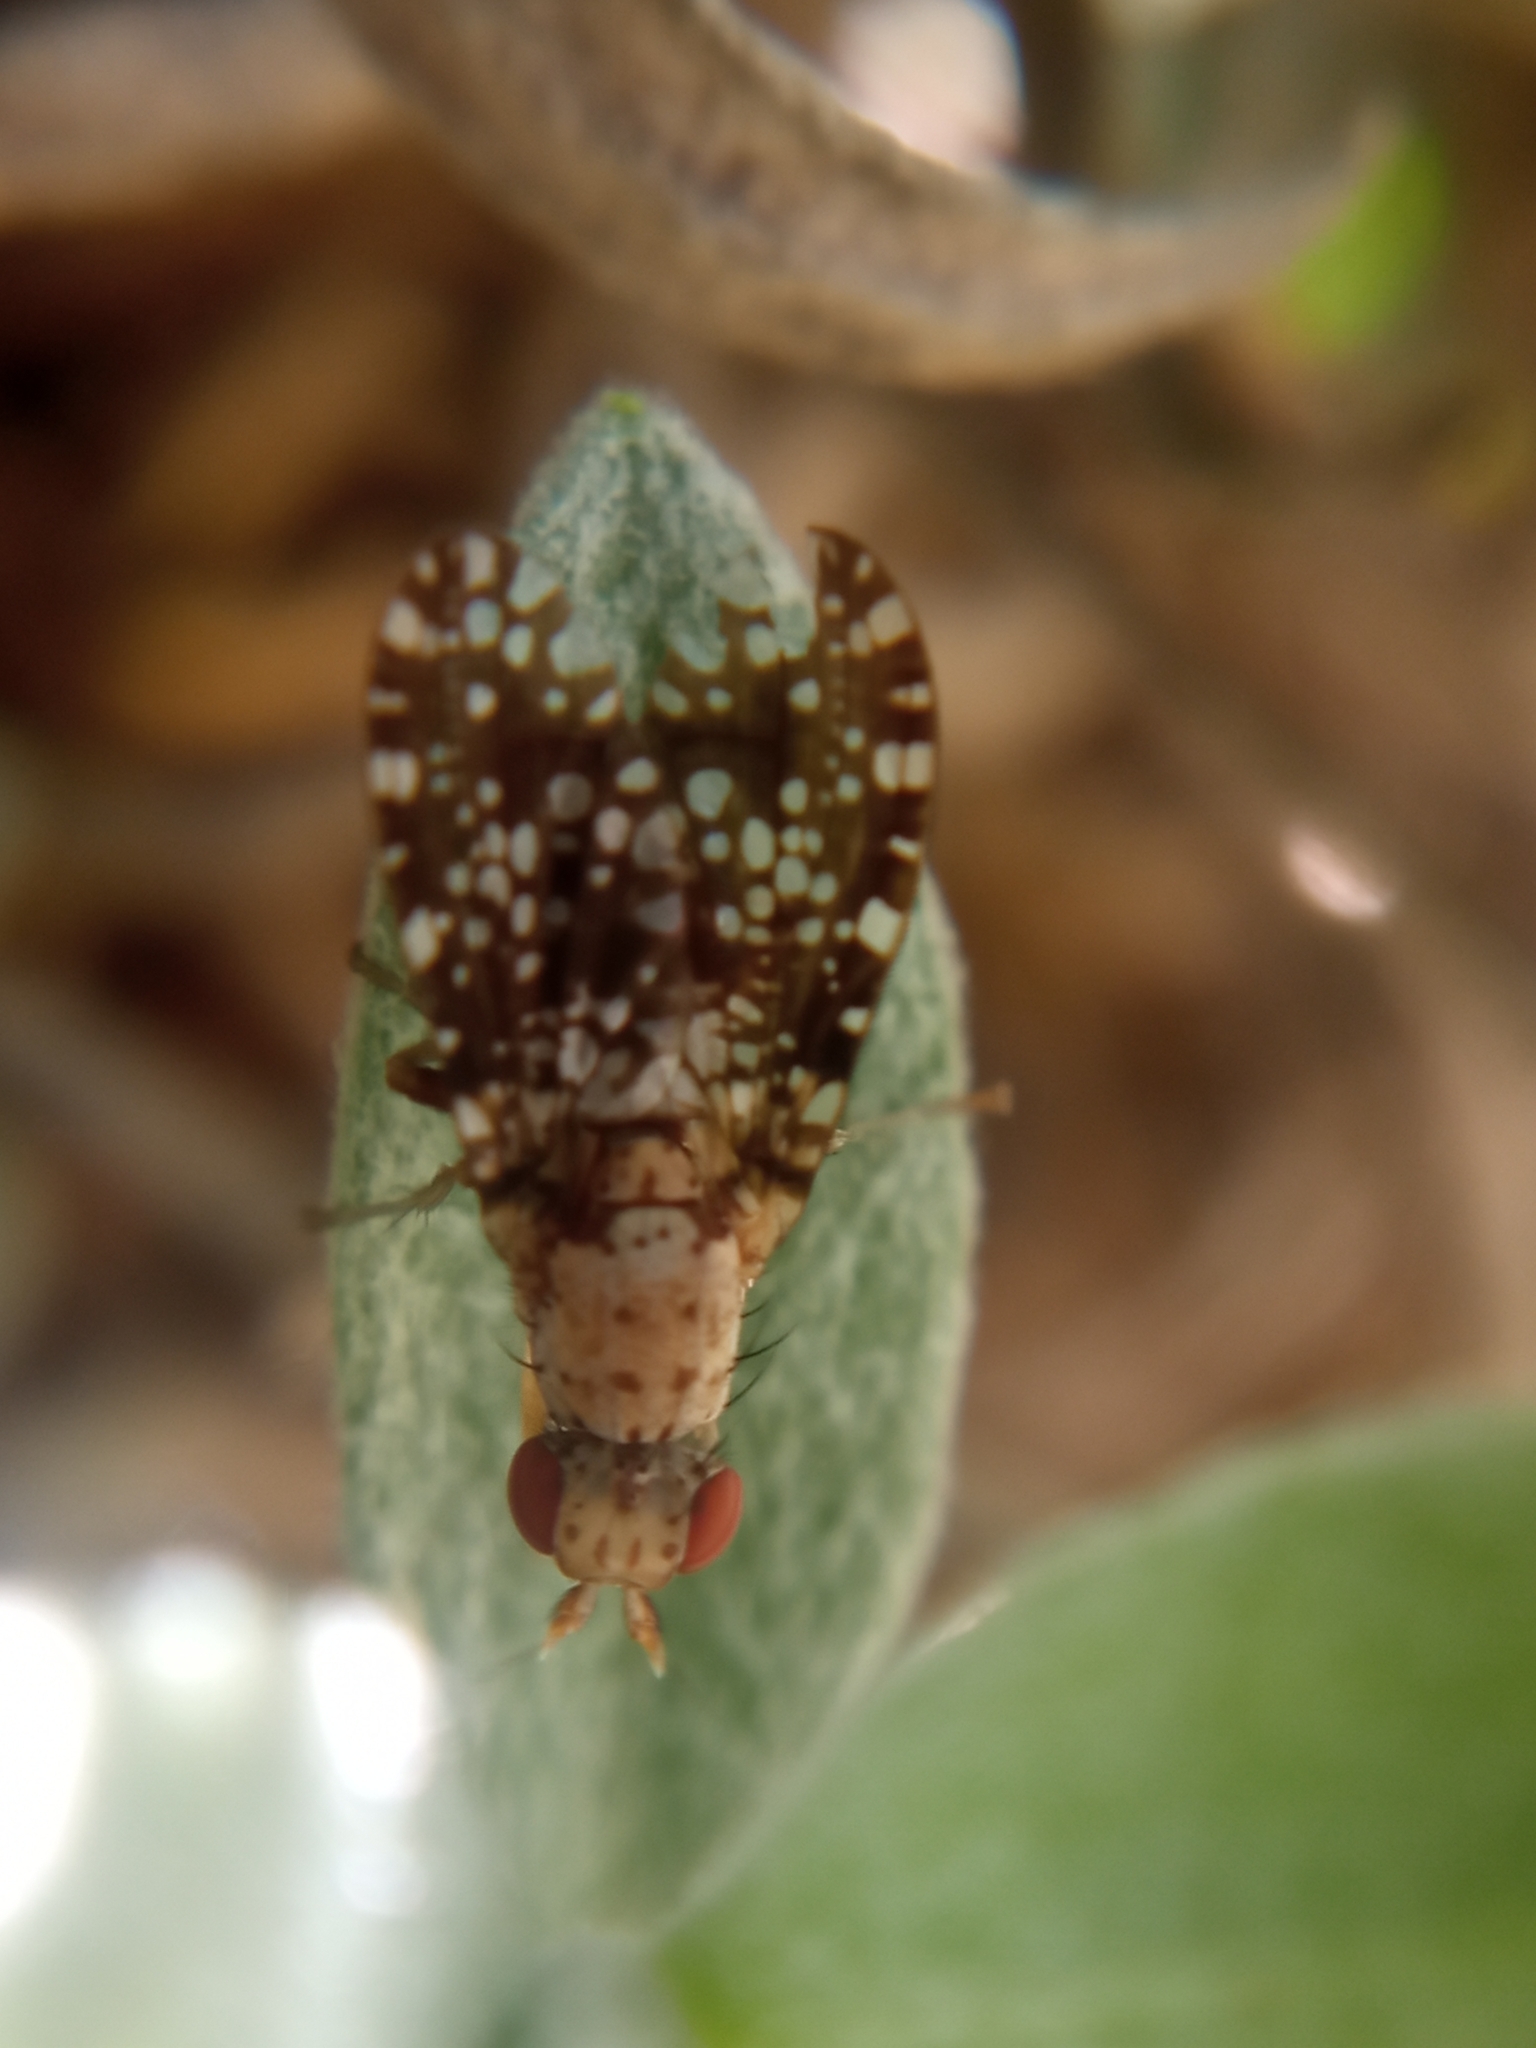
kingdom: Animalia
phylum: Arthropoda
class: Insecta
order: Diptera
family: Sciomyzidae
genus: Trypetoptera
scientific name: Trypetoptera punctulata
